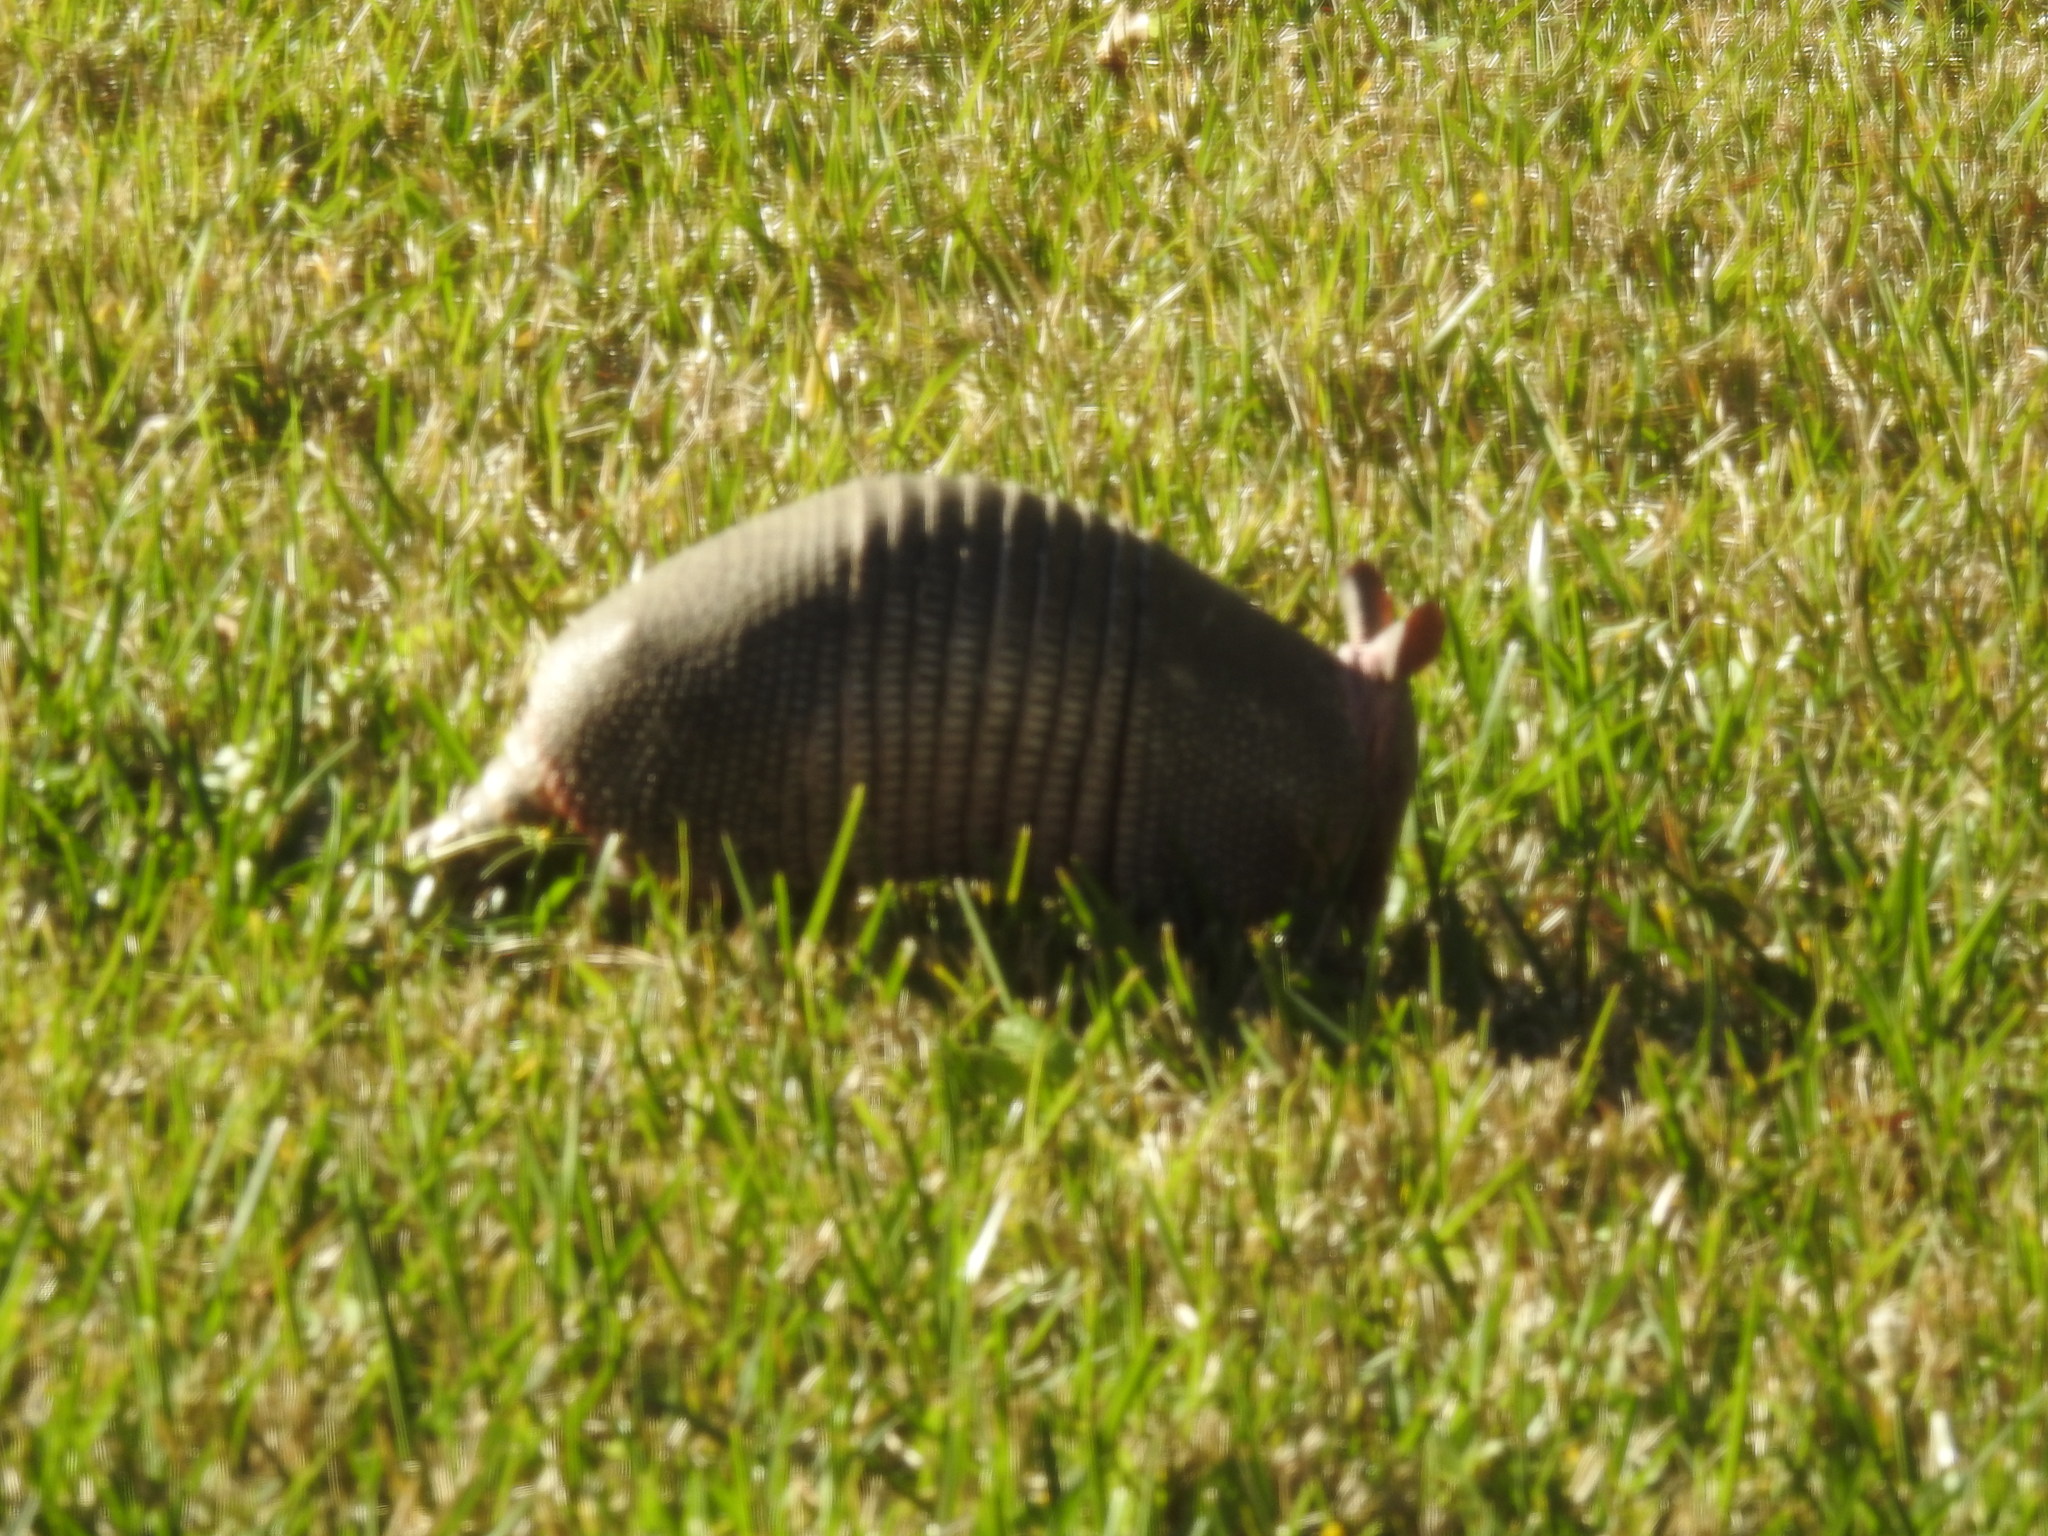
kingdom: Animalia
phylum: Chordata
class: Mammalia
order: Cingulata
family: Dasypodidae
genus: Dasypus
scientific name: Dasypus novemcinctus
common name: Nine-banded armadillo
